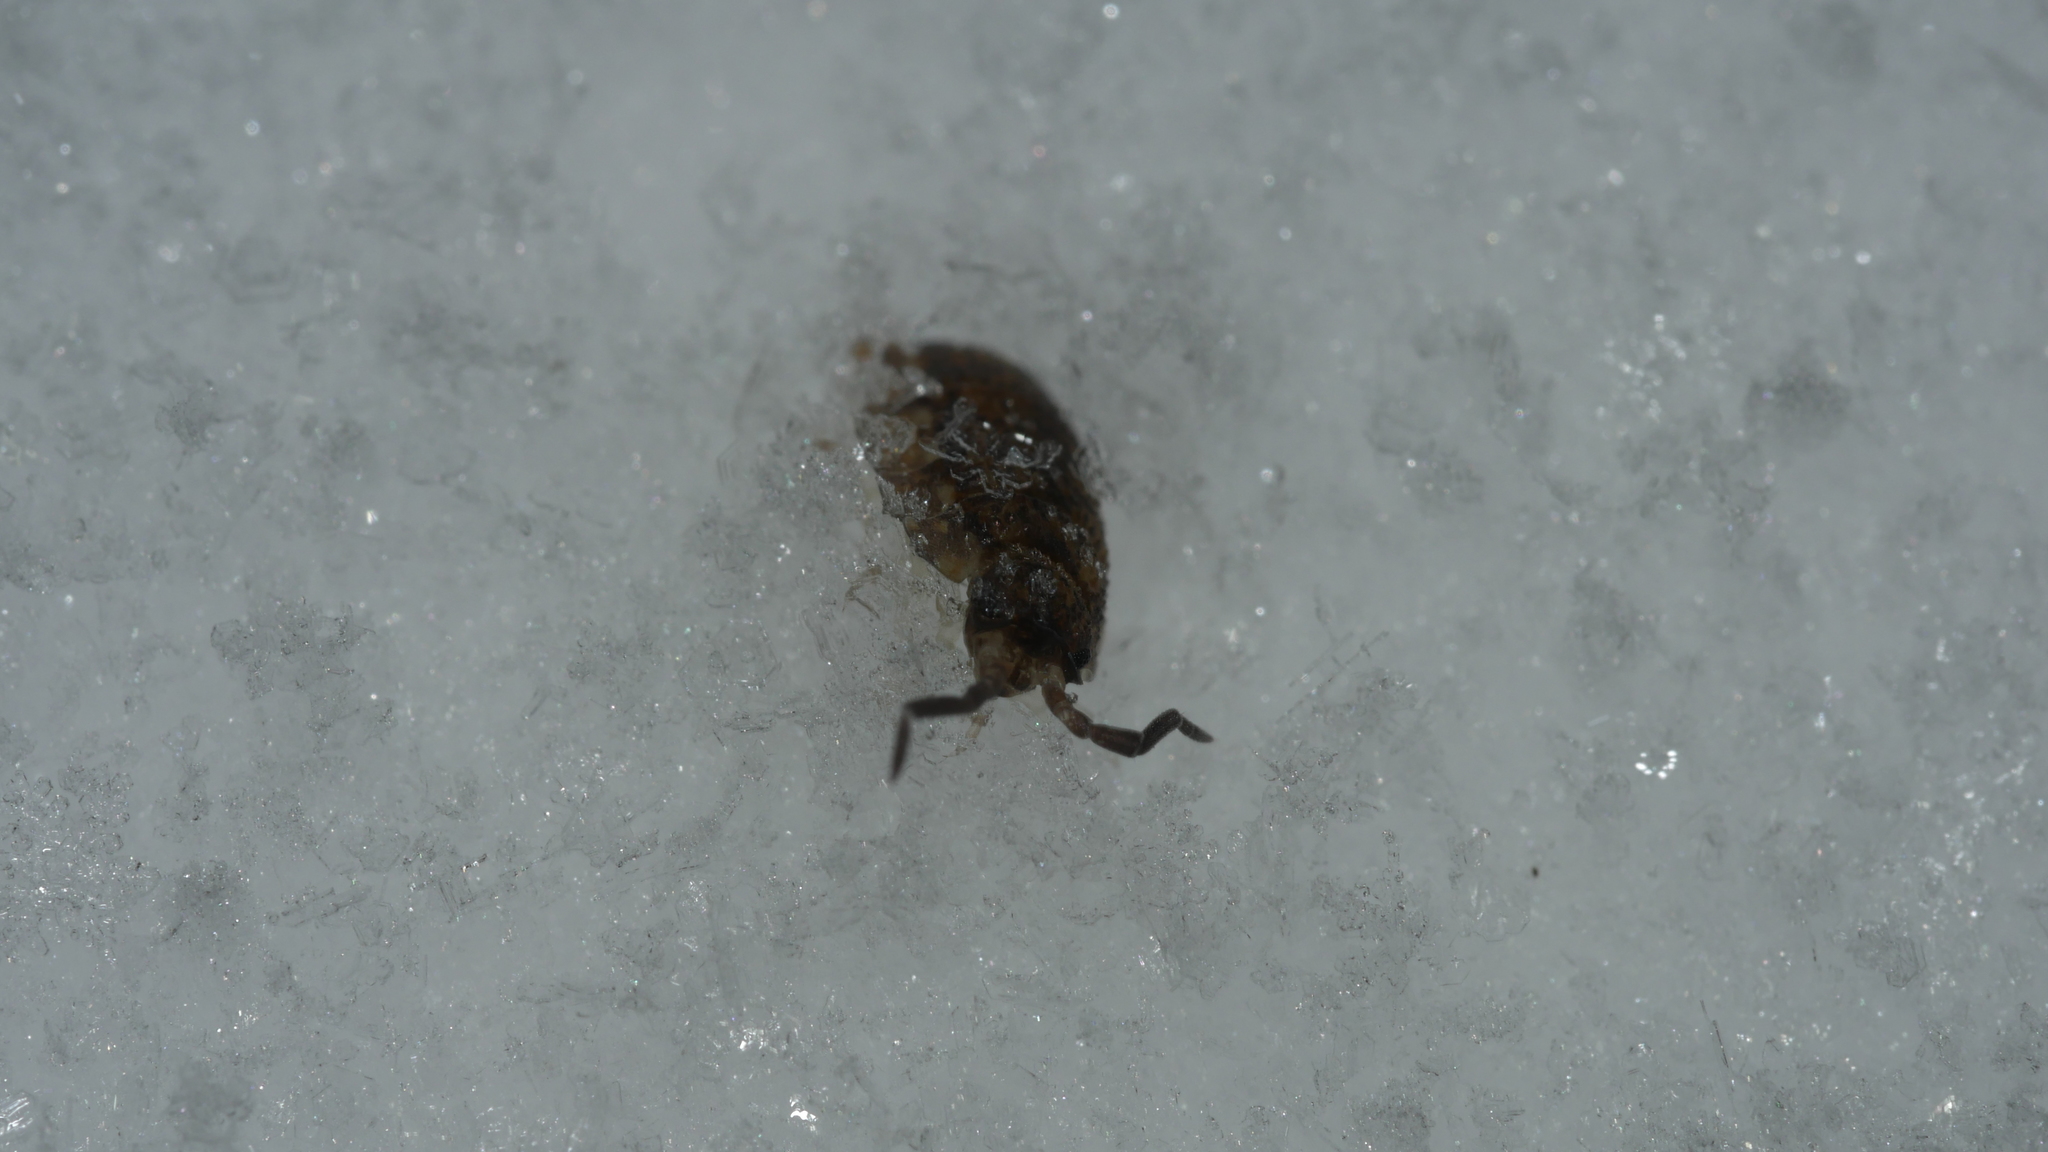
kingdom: Animalia
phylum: Arthropoda
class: Malacostraca
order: Isopoda
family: Porcellionidae
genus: Porcellio
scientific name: Porcellio scaber
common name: Common rough woodlouse
